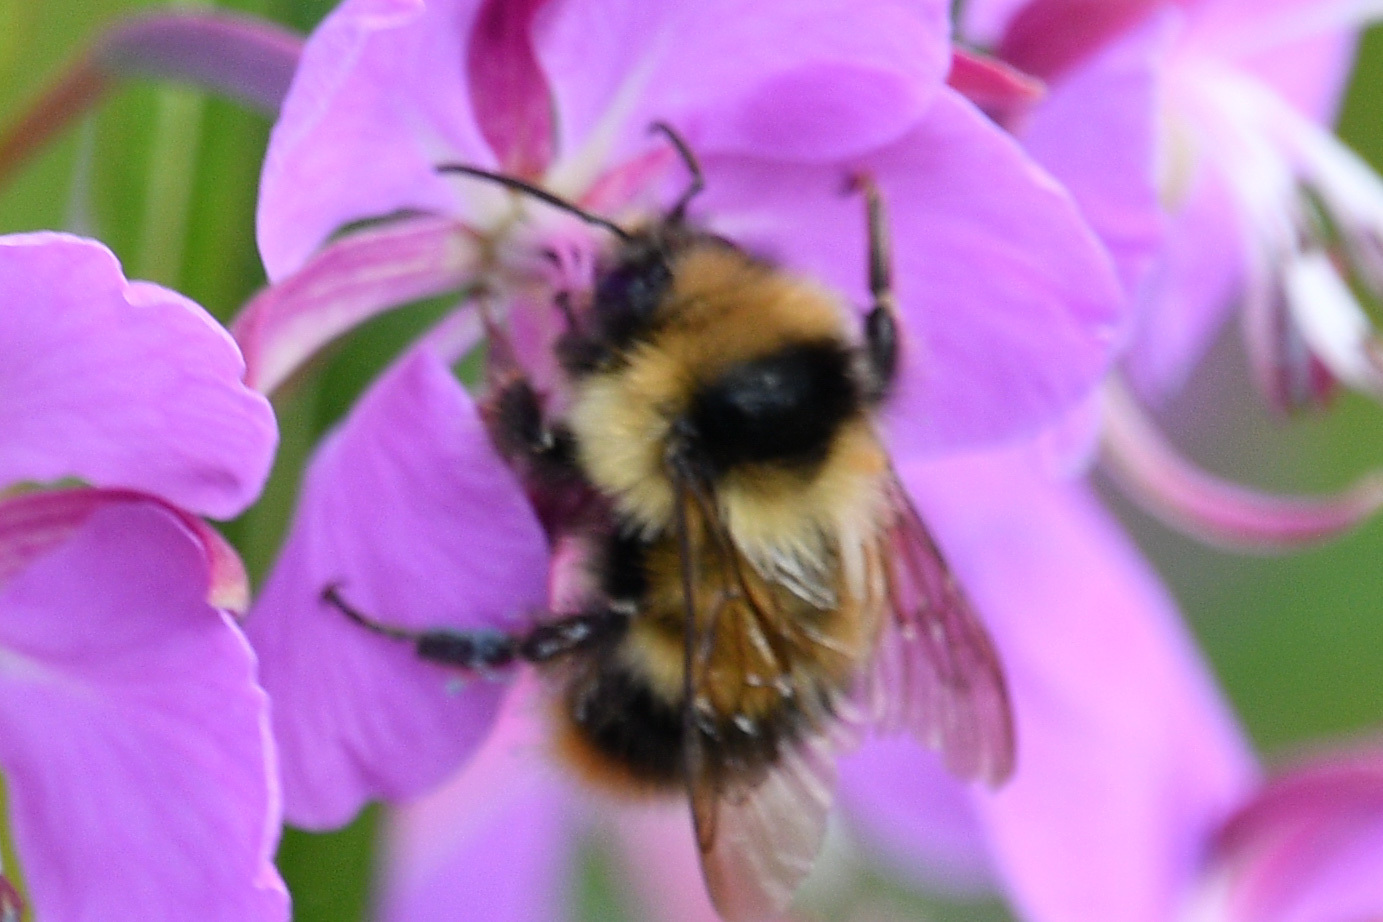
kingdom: Animalia
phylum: Arthropoda
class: Insecta
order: Hymenoptera
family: Apidae
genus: Bombus
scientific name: Bombus frigidus
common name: Frigid bumble bee
